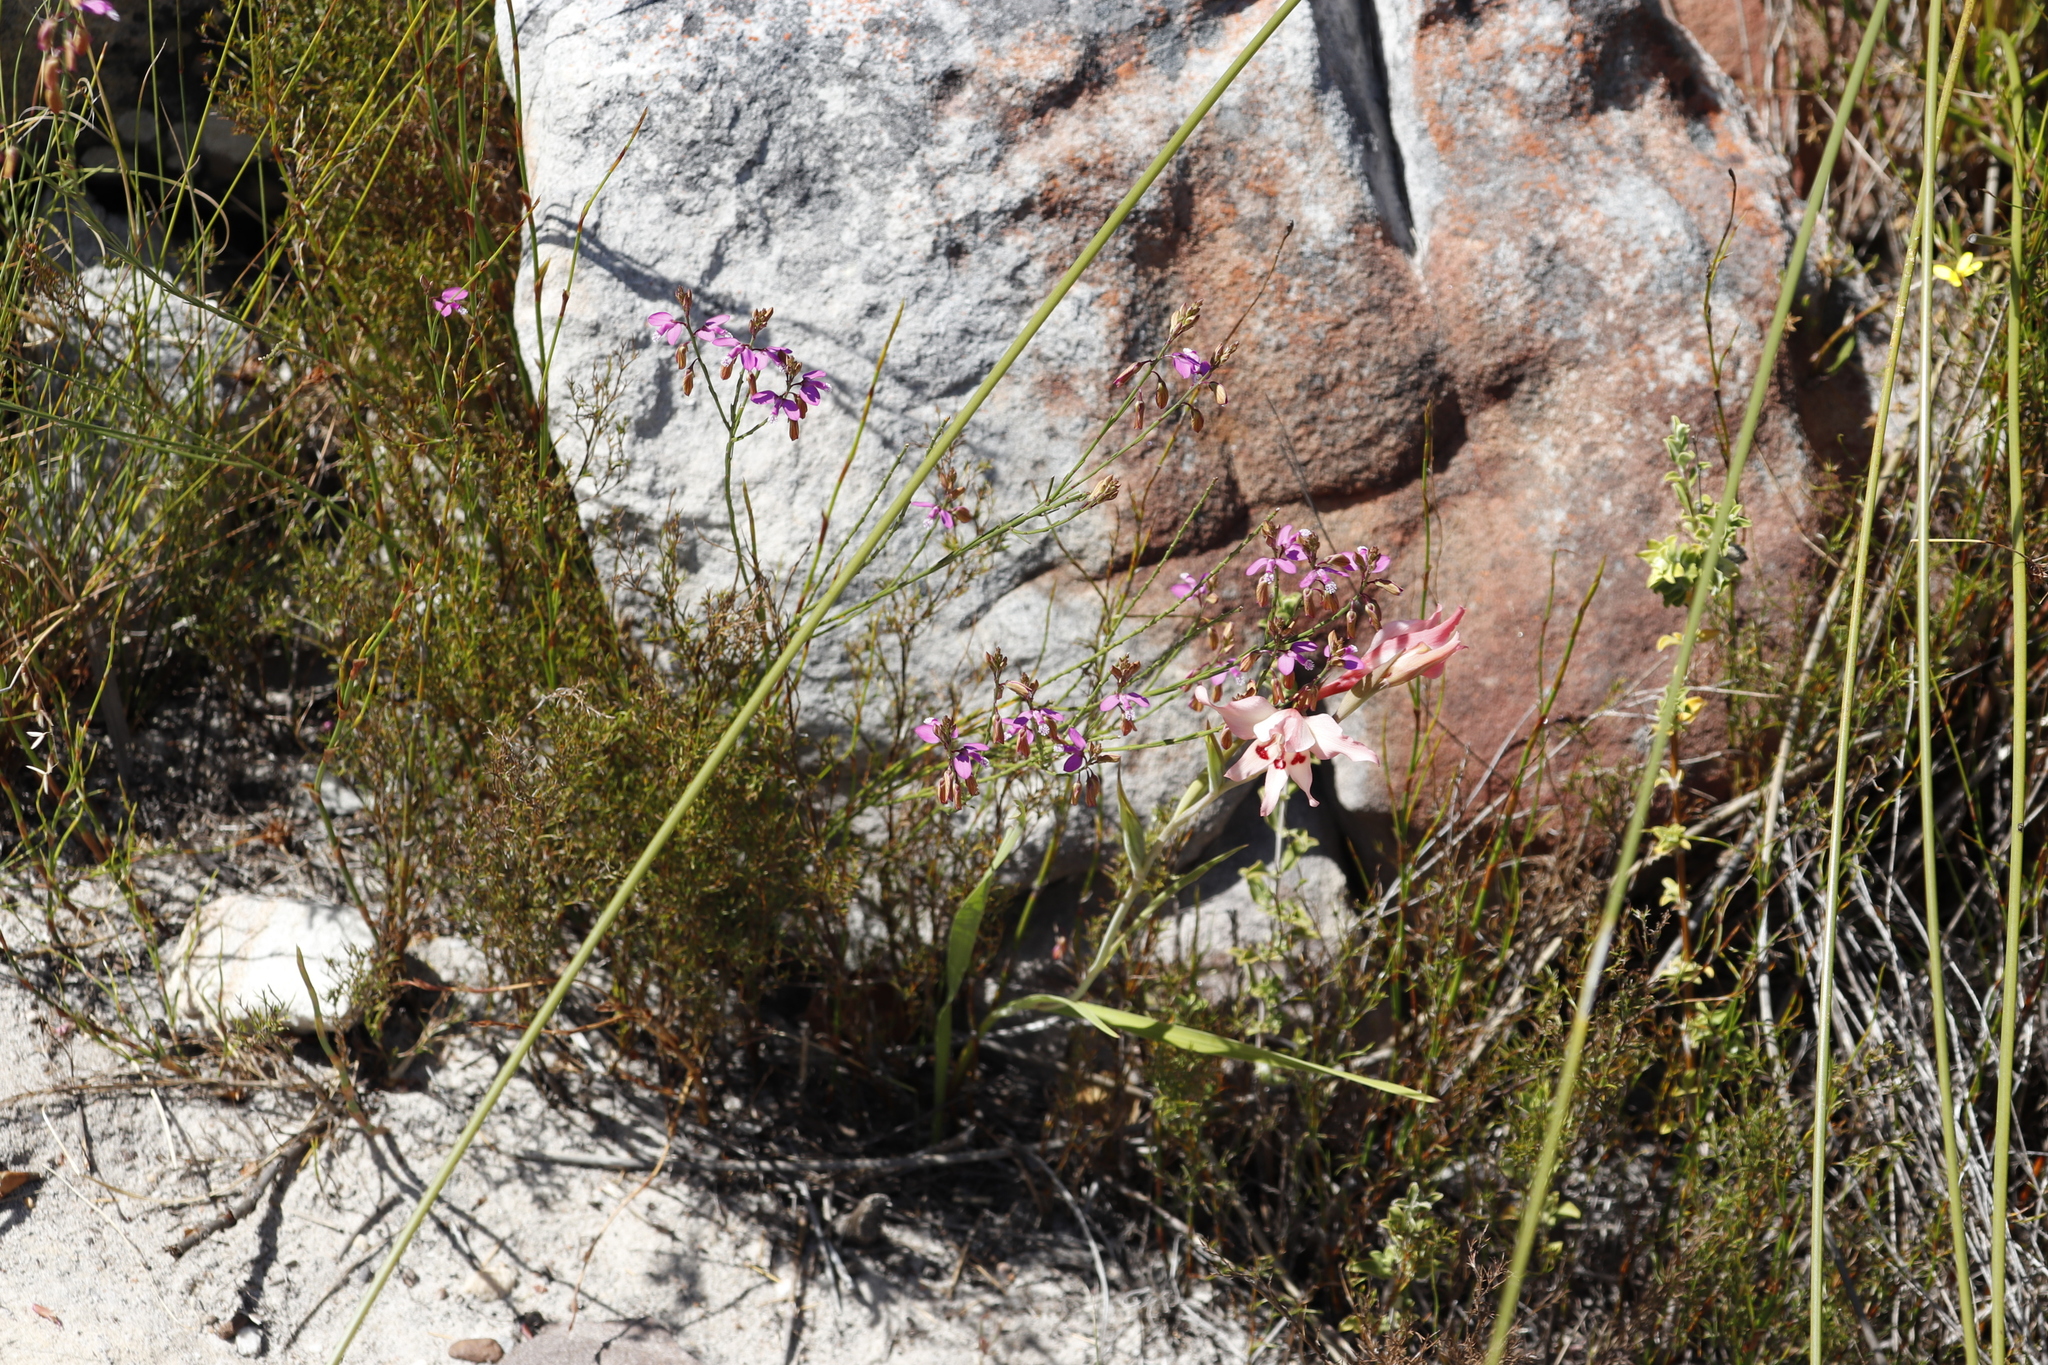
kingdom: Plantae
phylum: Tracheophyta
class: Magnoliopsida
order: Fabales
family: Polygalaceae
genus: Polygala
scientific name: Polygala garcini
